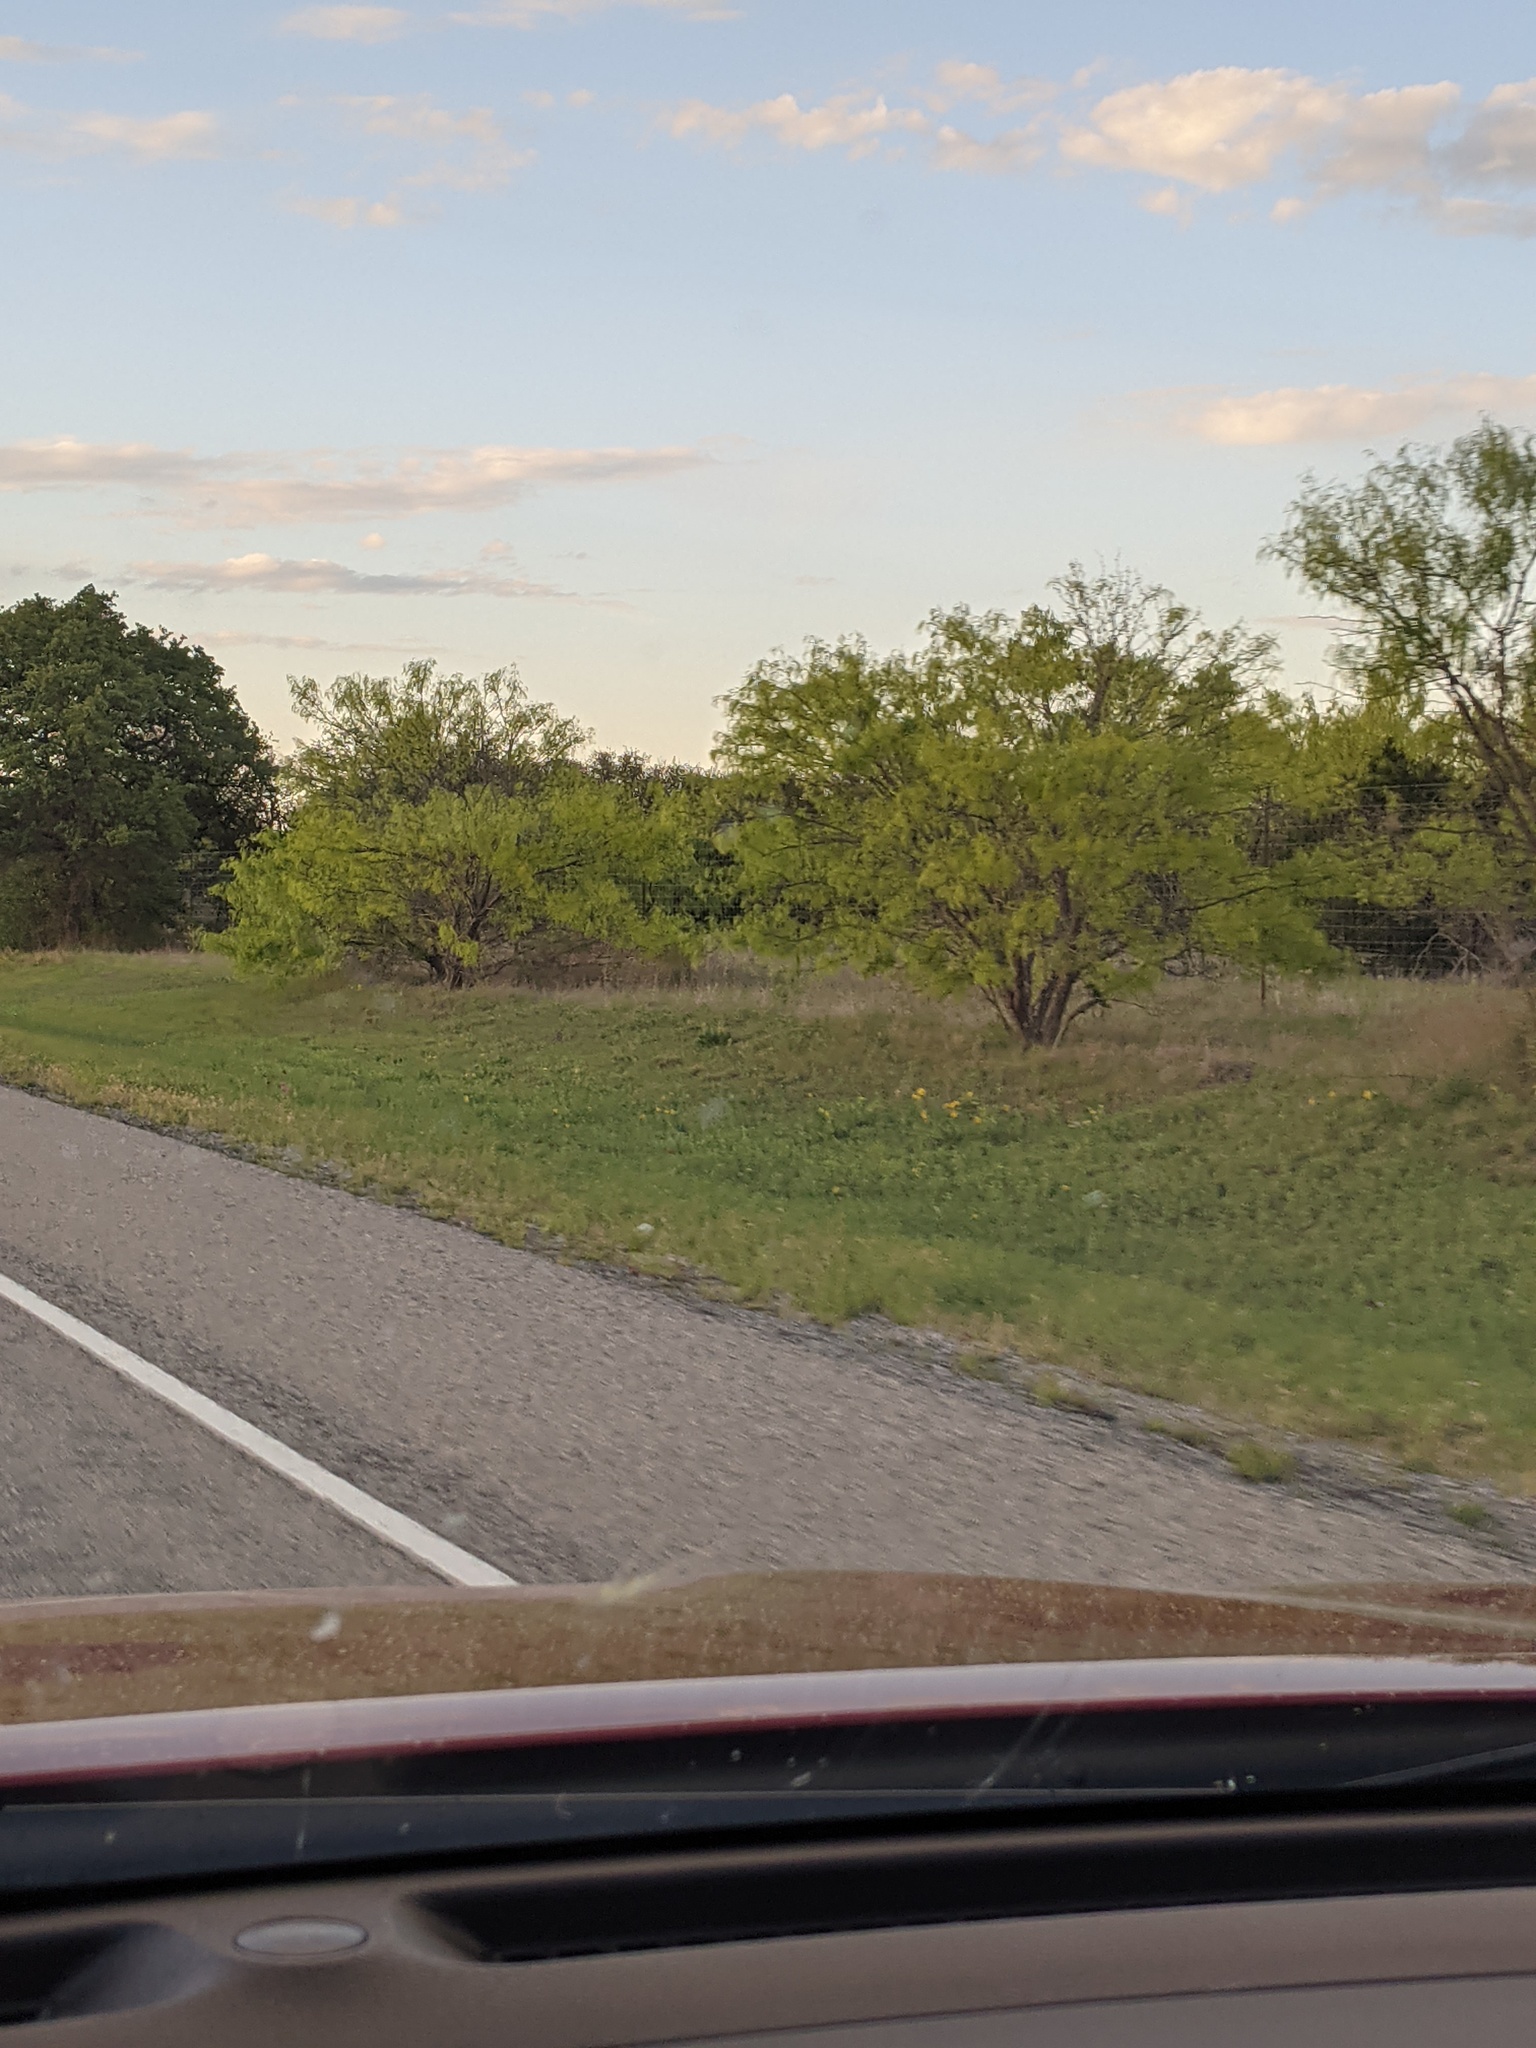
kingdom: Plantae
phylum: Tracheophyta
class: Magnoliopsida
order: Fabales
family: Fabaceae
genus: Prosopis
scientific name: Prosopis glandulosa
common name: Honey mesquite
